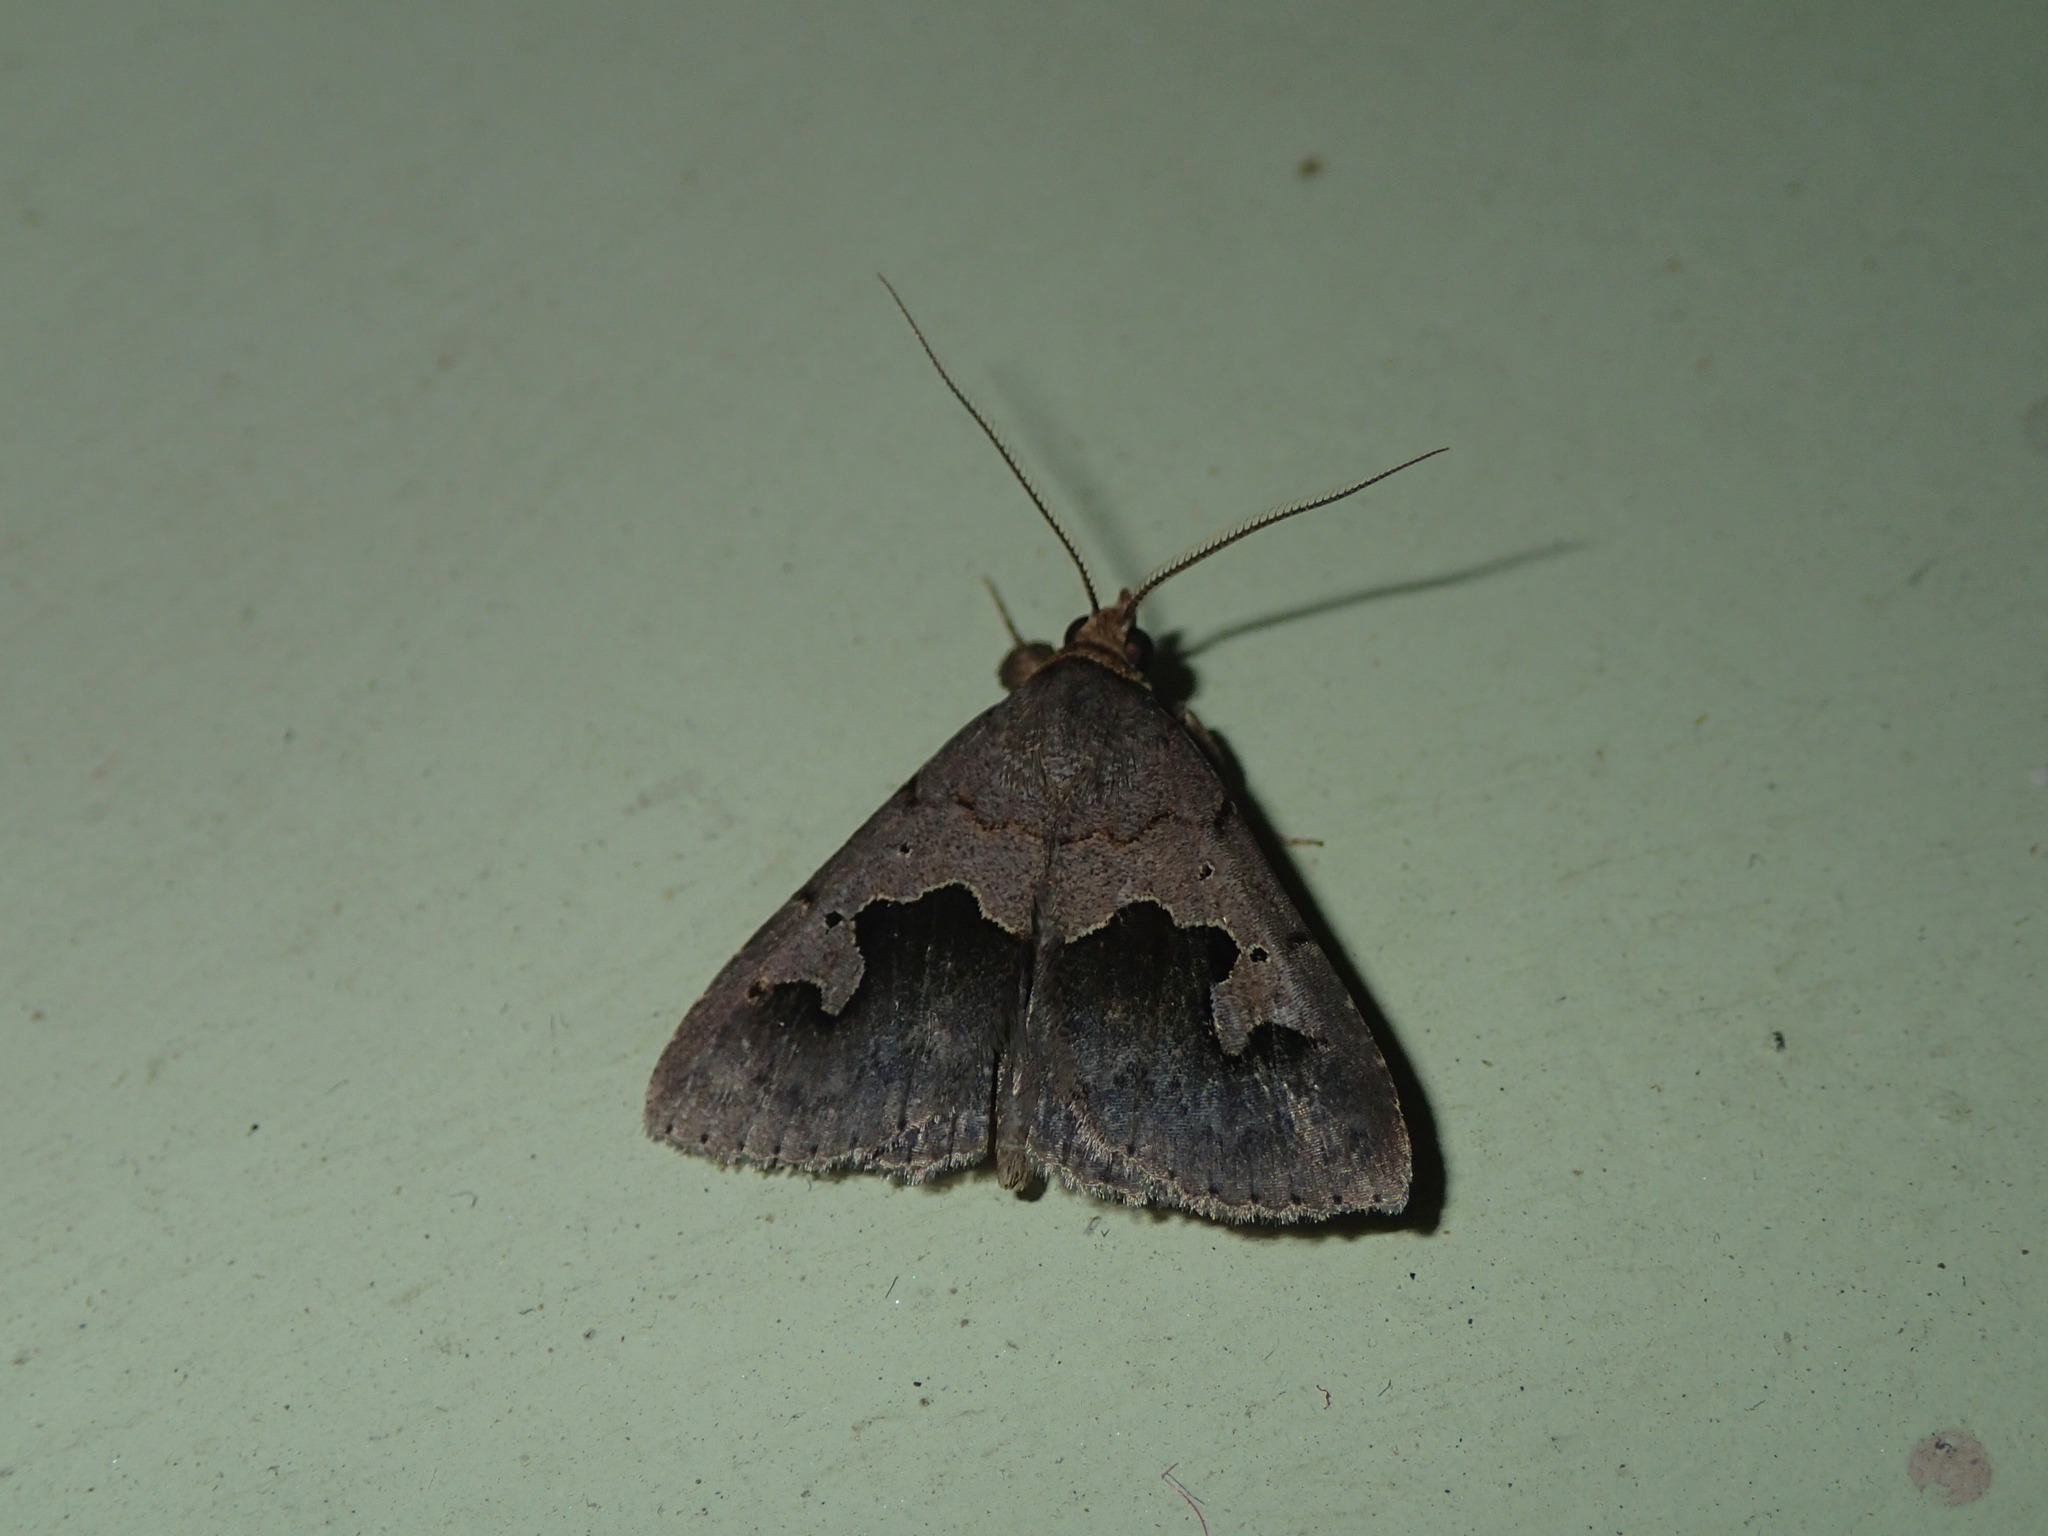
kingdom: Animalia
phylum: Arthropoda
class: Insecta
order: Lepidoptera
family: Erebidae
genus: Baniana
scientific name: Baniana semilugens
